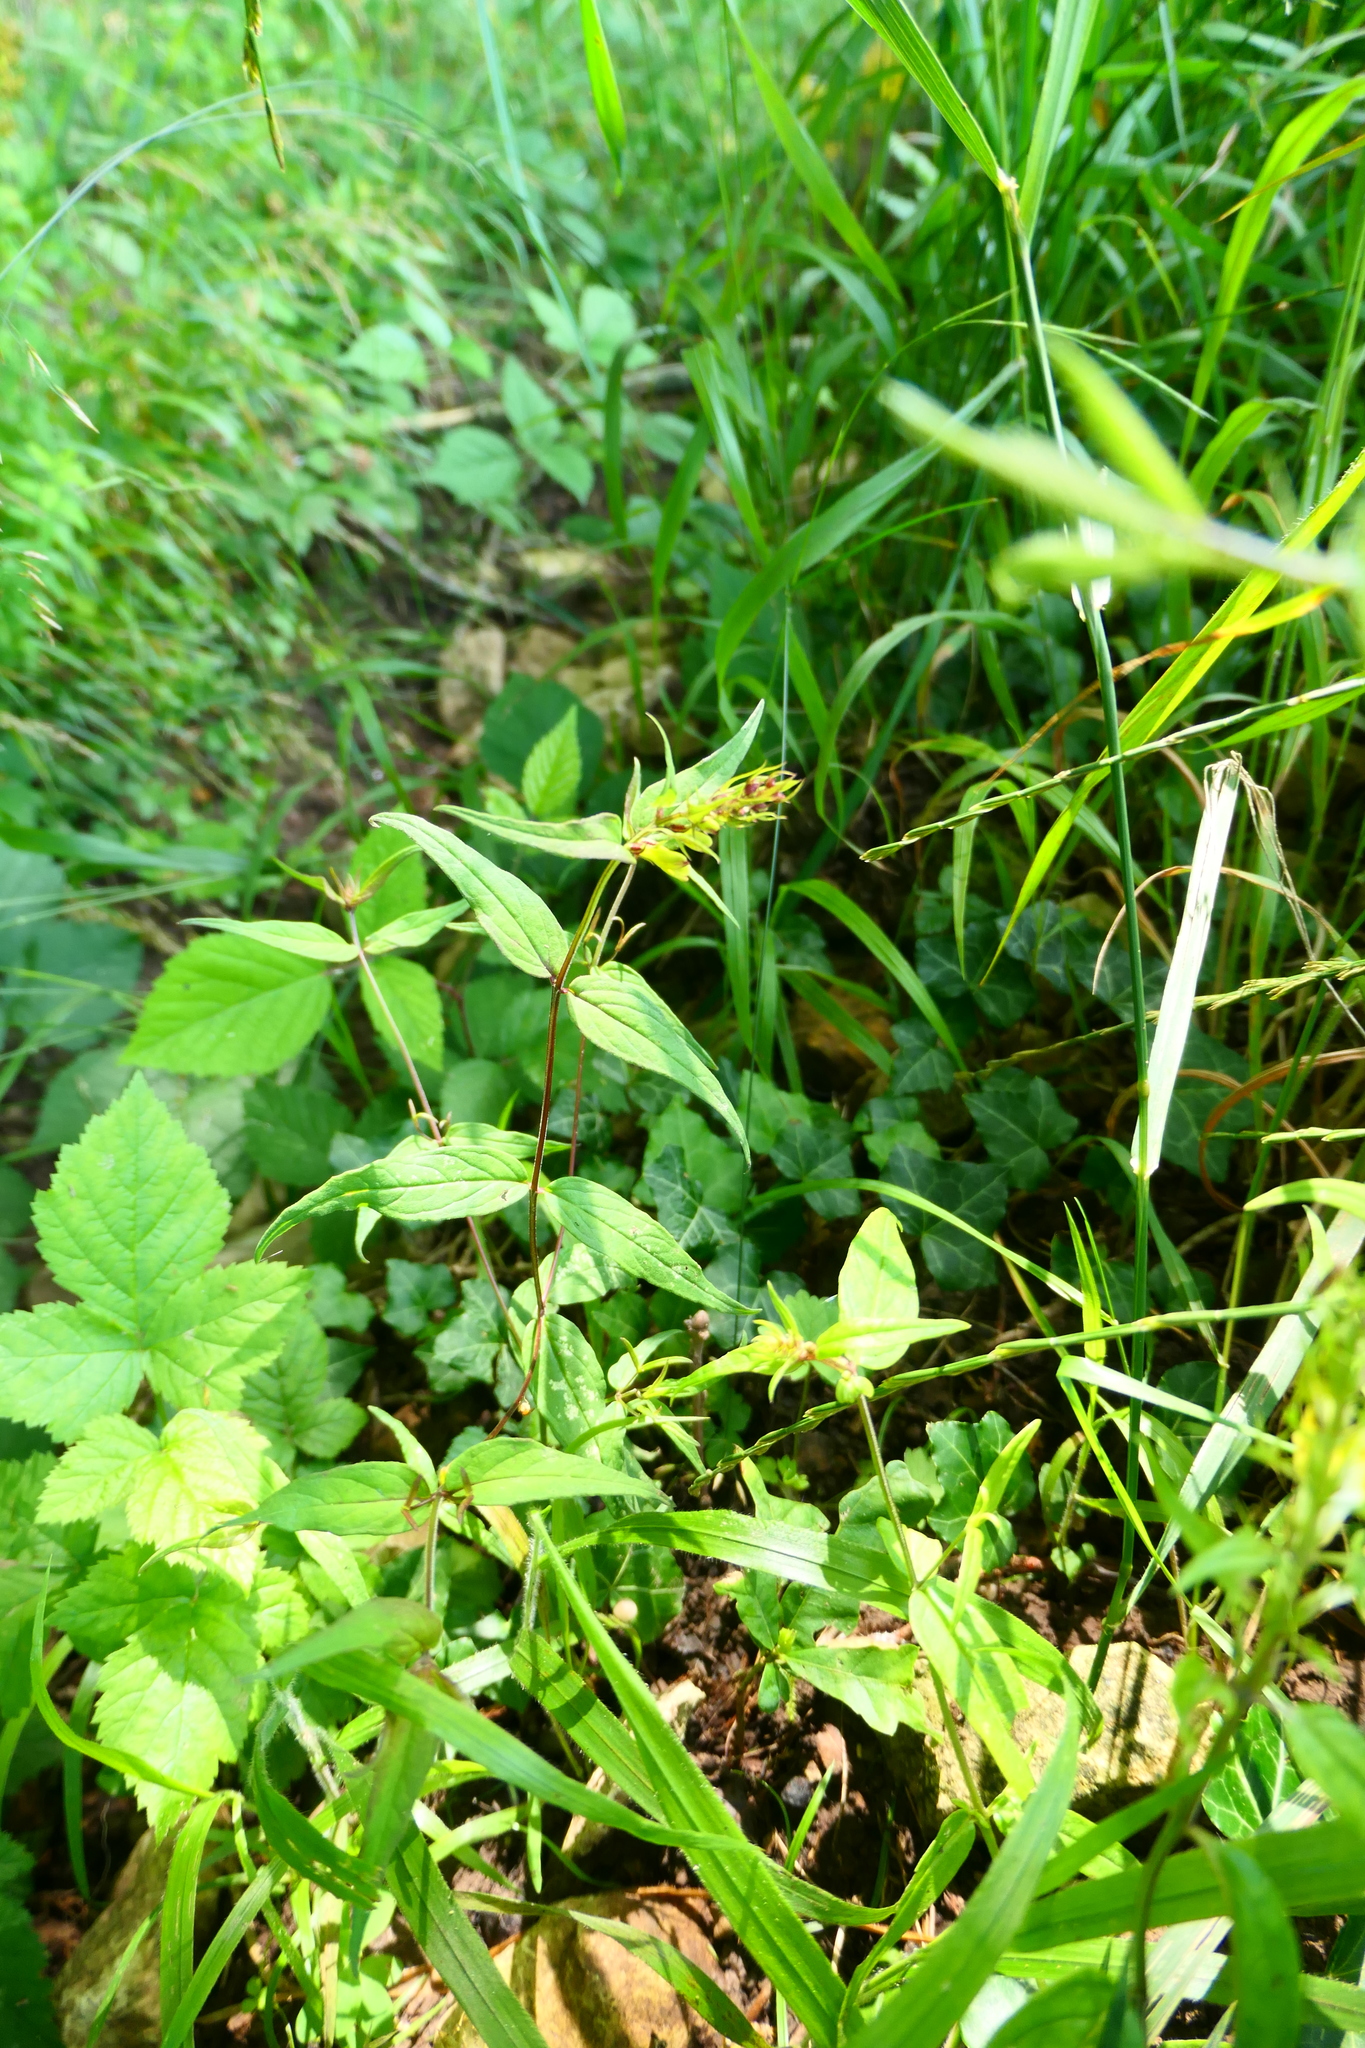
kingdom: Plantae
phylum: Tracheophyta
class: Magnoliopsida
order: Lamiales
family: Orobanchaceae
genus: Melampyrum
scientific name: Melampyrum pratense
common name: Common cow-wheat
